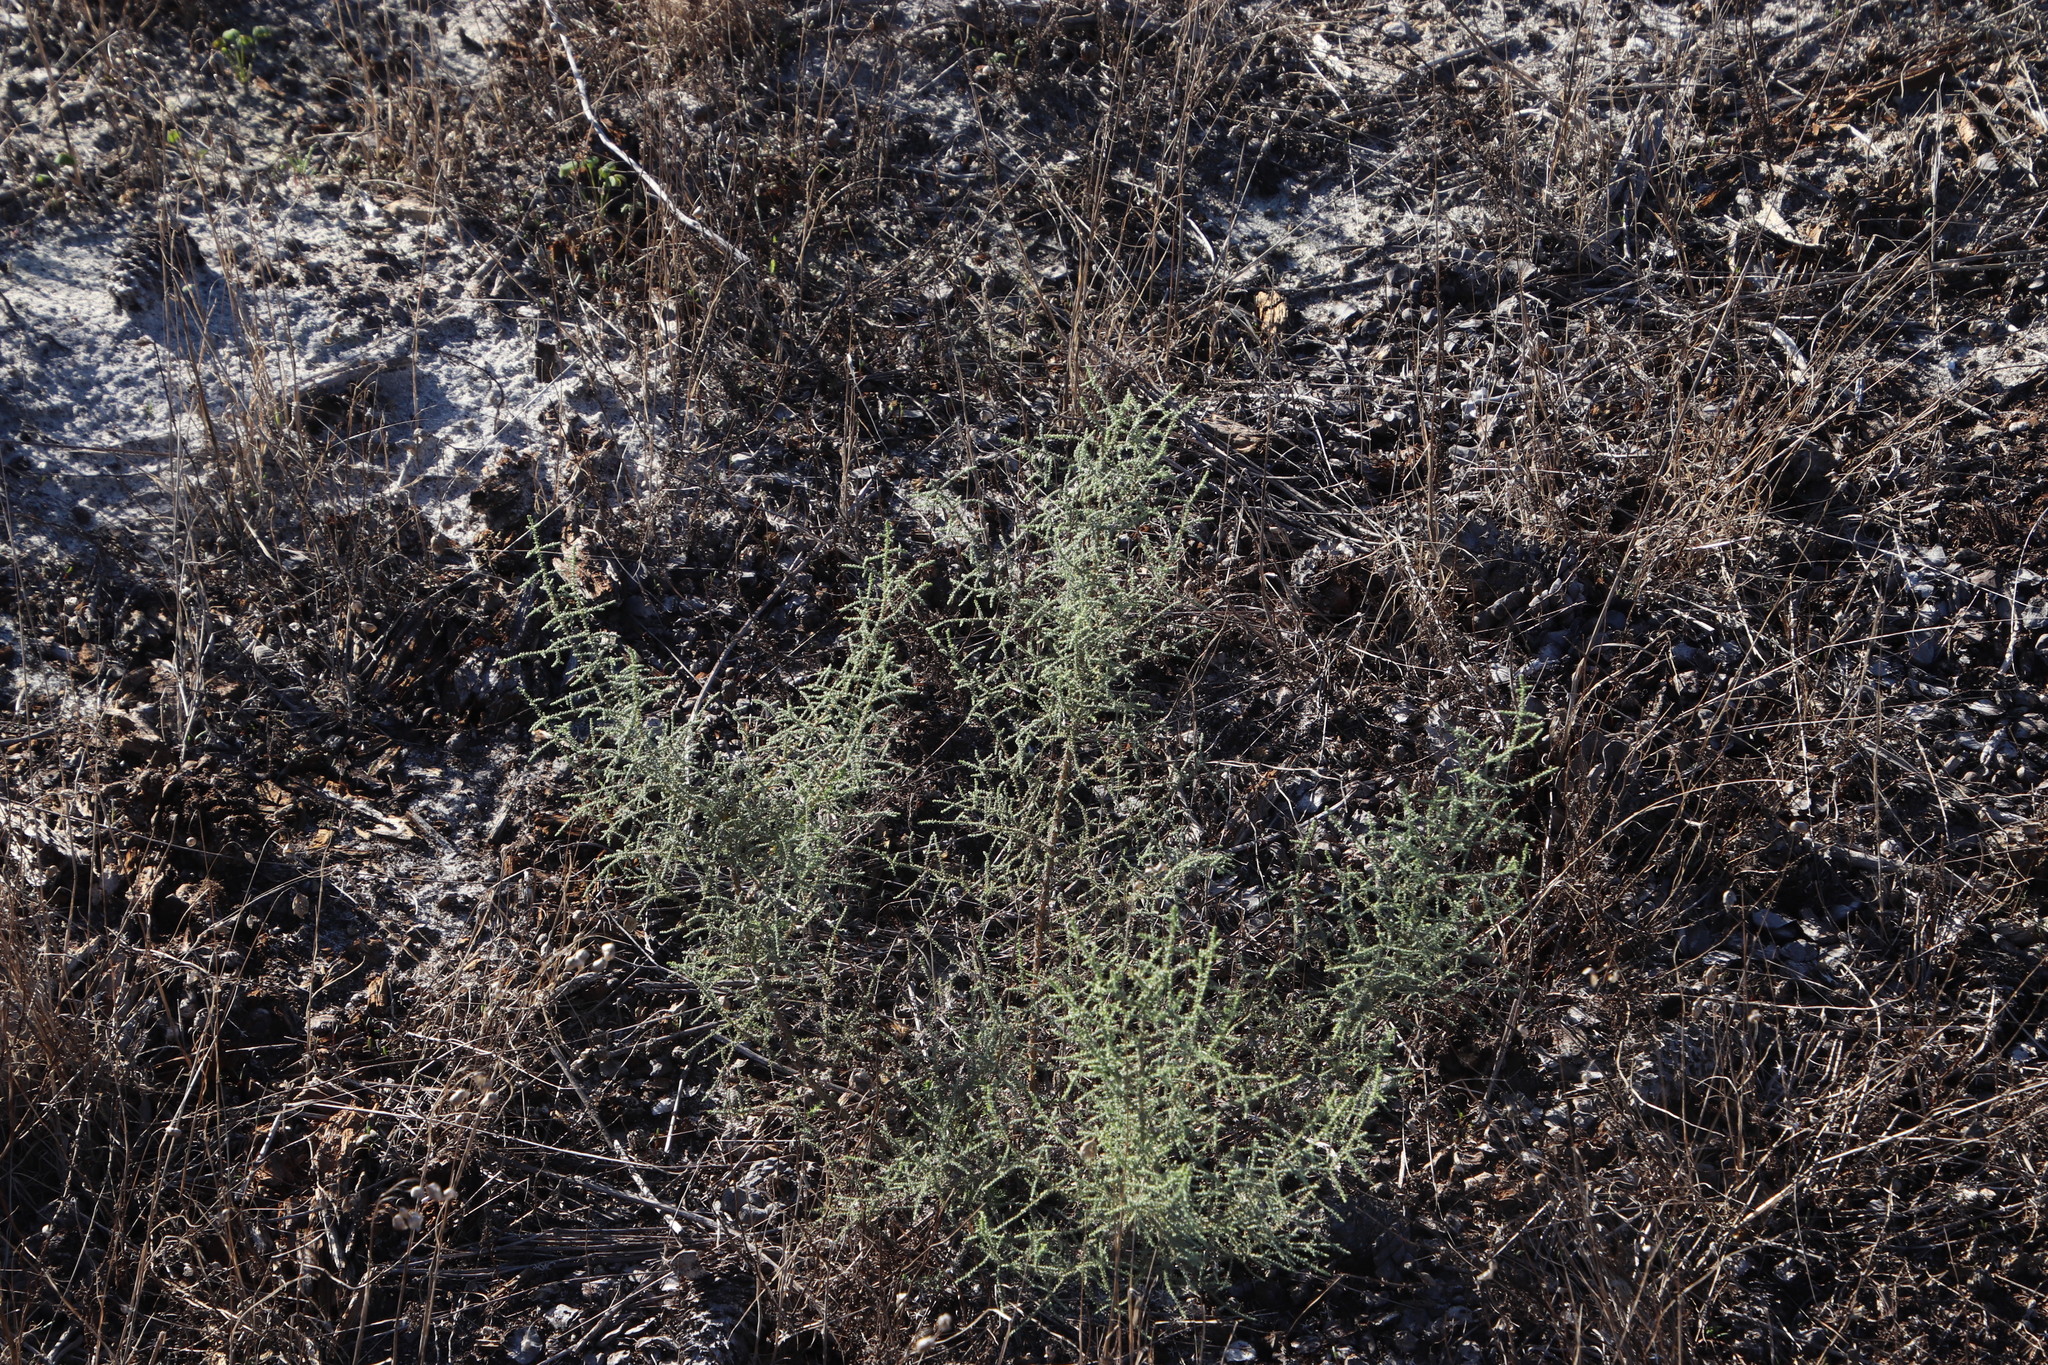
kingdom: Plantae
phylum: Tracheophyta
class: Magnoliopsida
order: Asterales
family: Asteraceae
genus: Seriphium
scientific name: Seriphium plumosum
